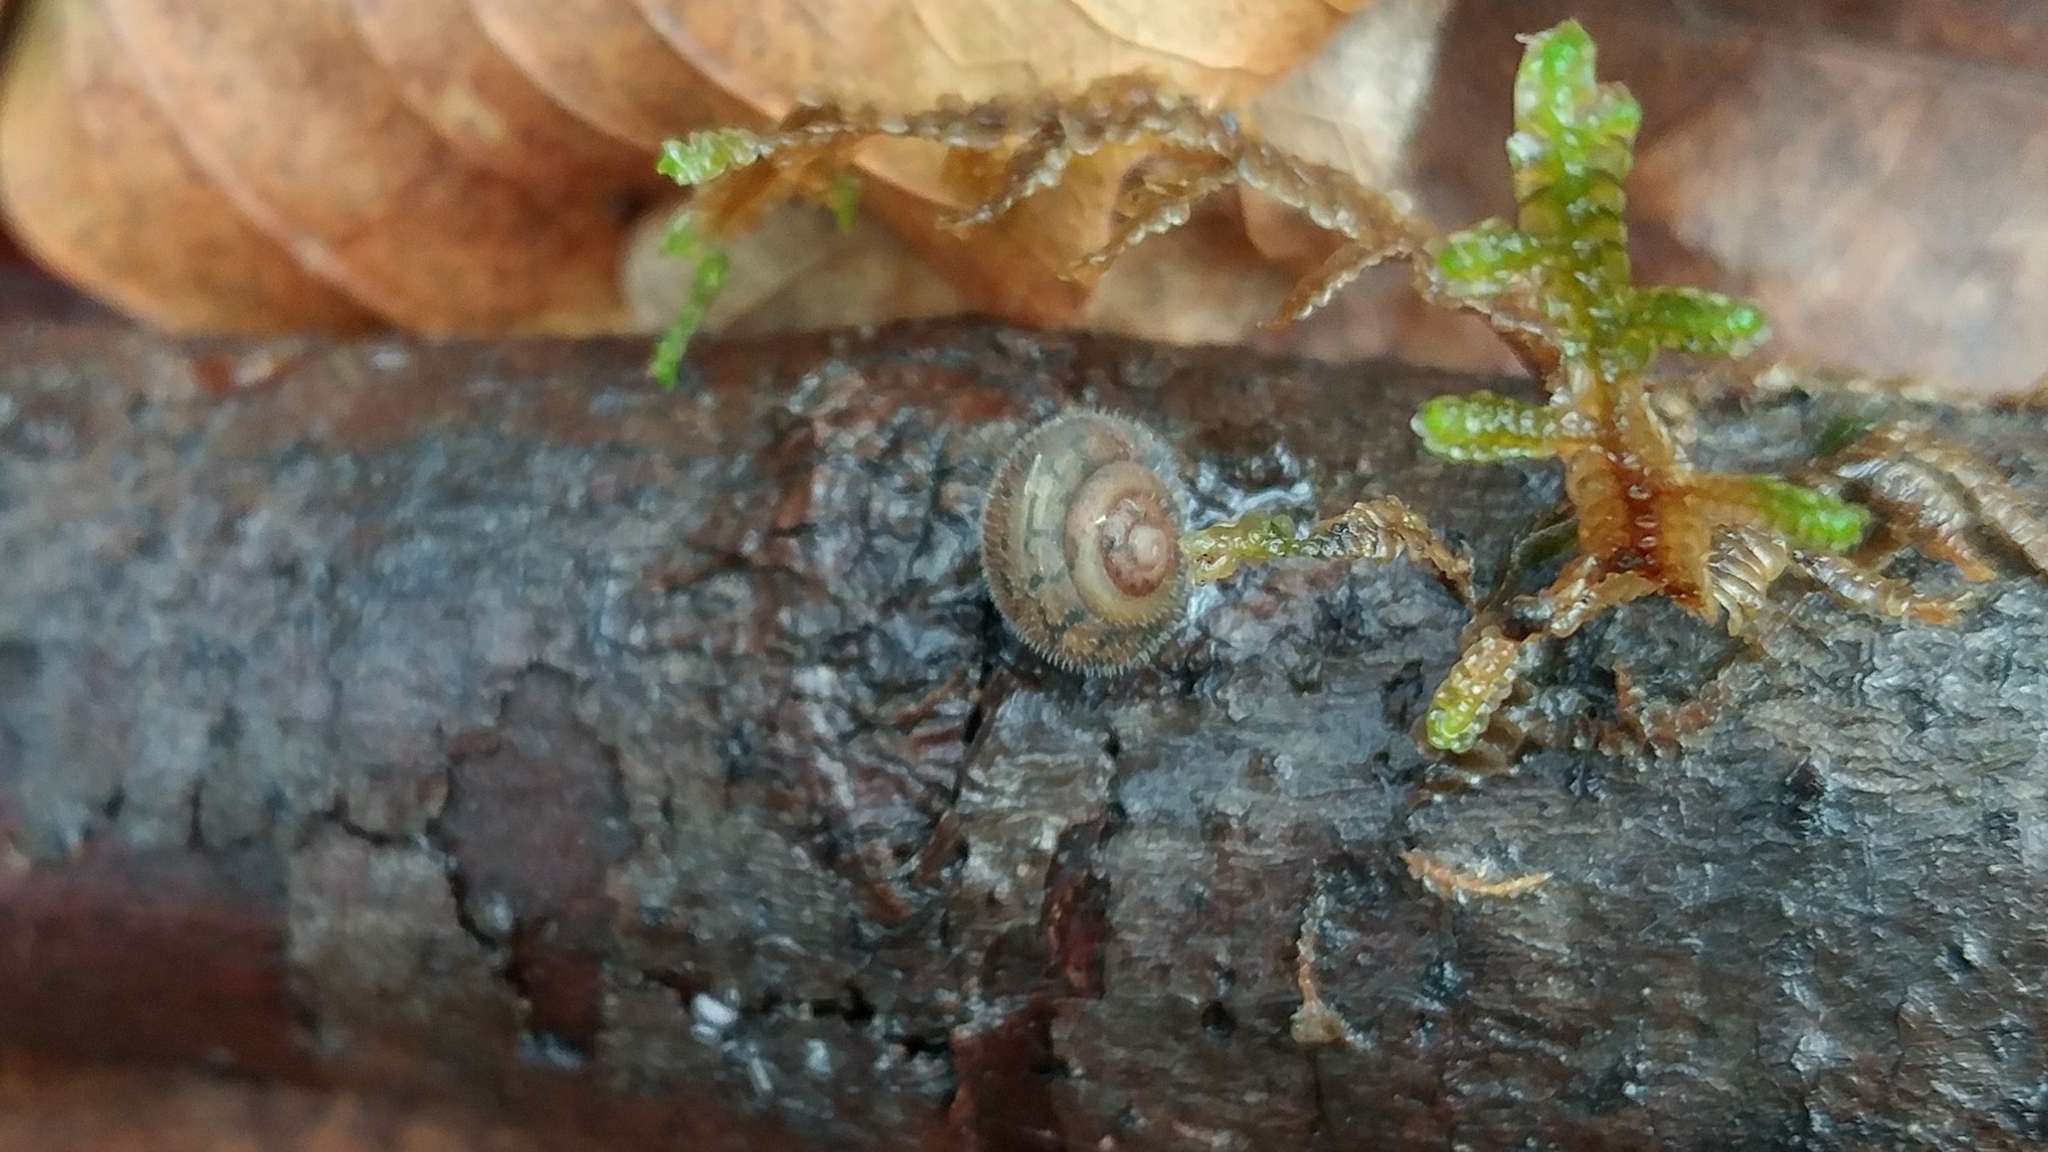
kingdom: Animalia
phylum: Mollusca
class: Gastropoda
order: Stylommatophora
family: Polygyridae
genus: Vespericola
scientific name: Vespericola columbianus
